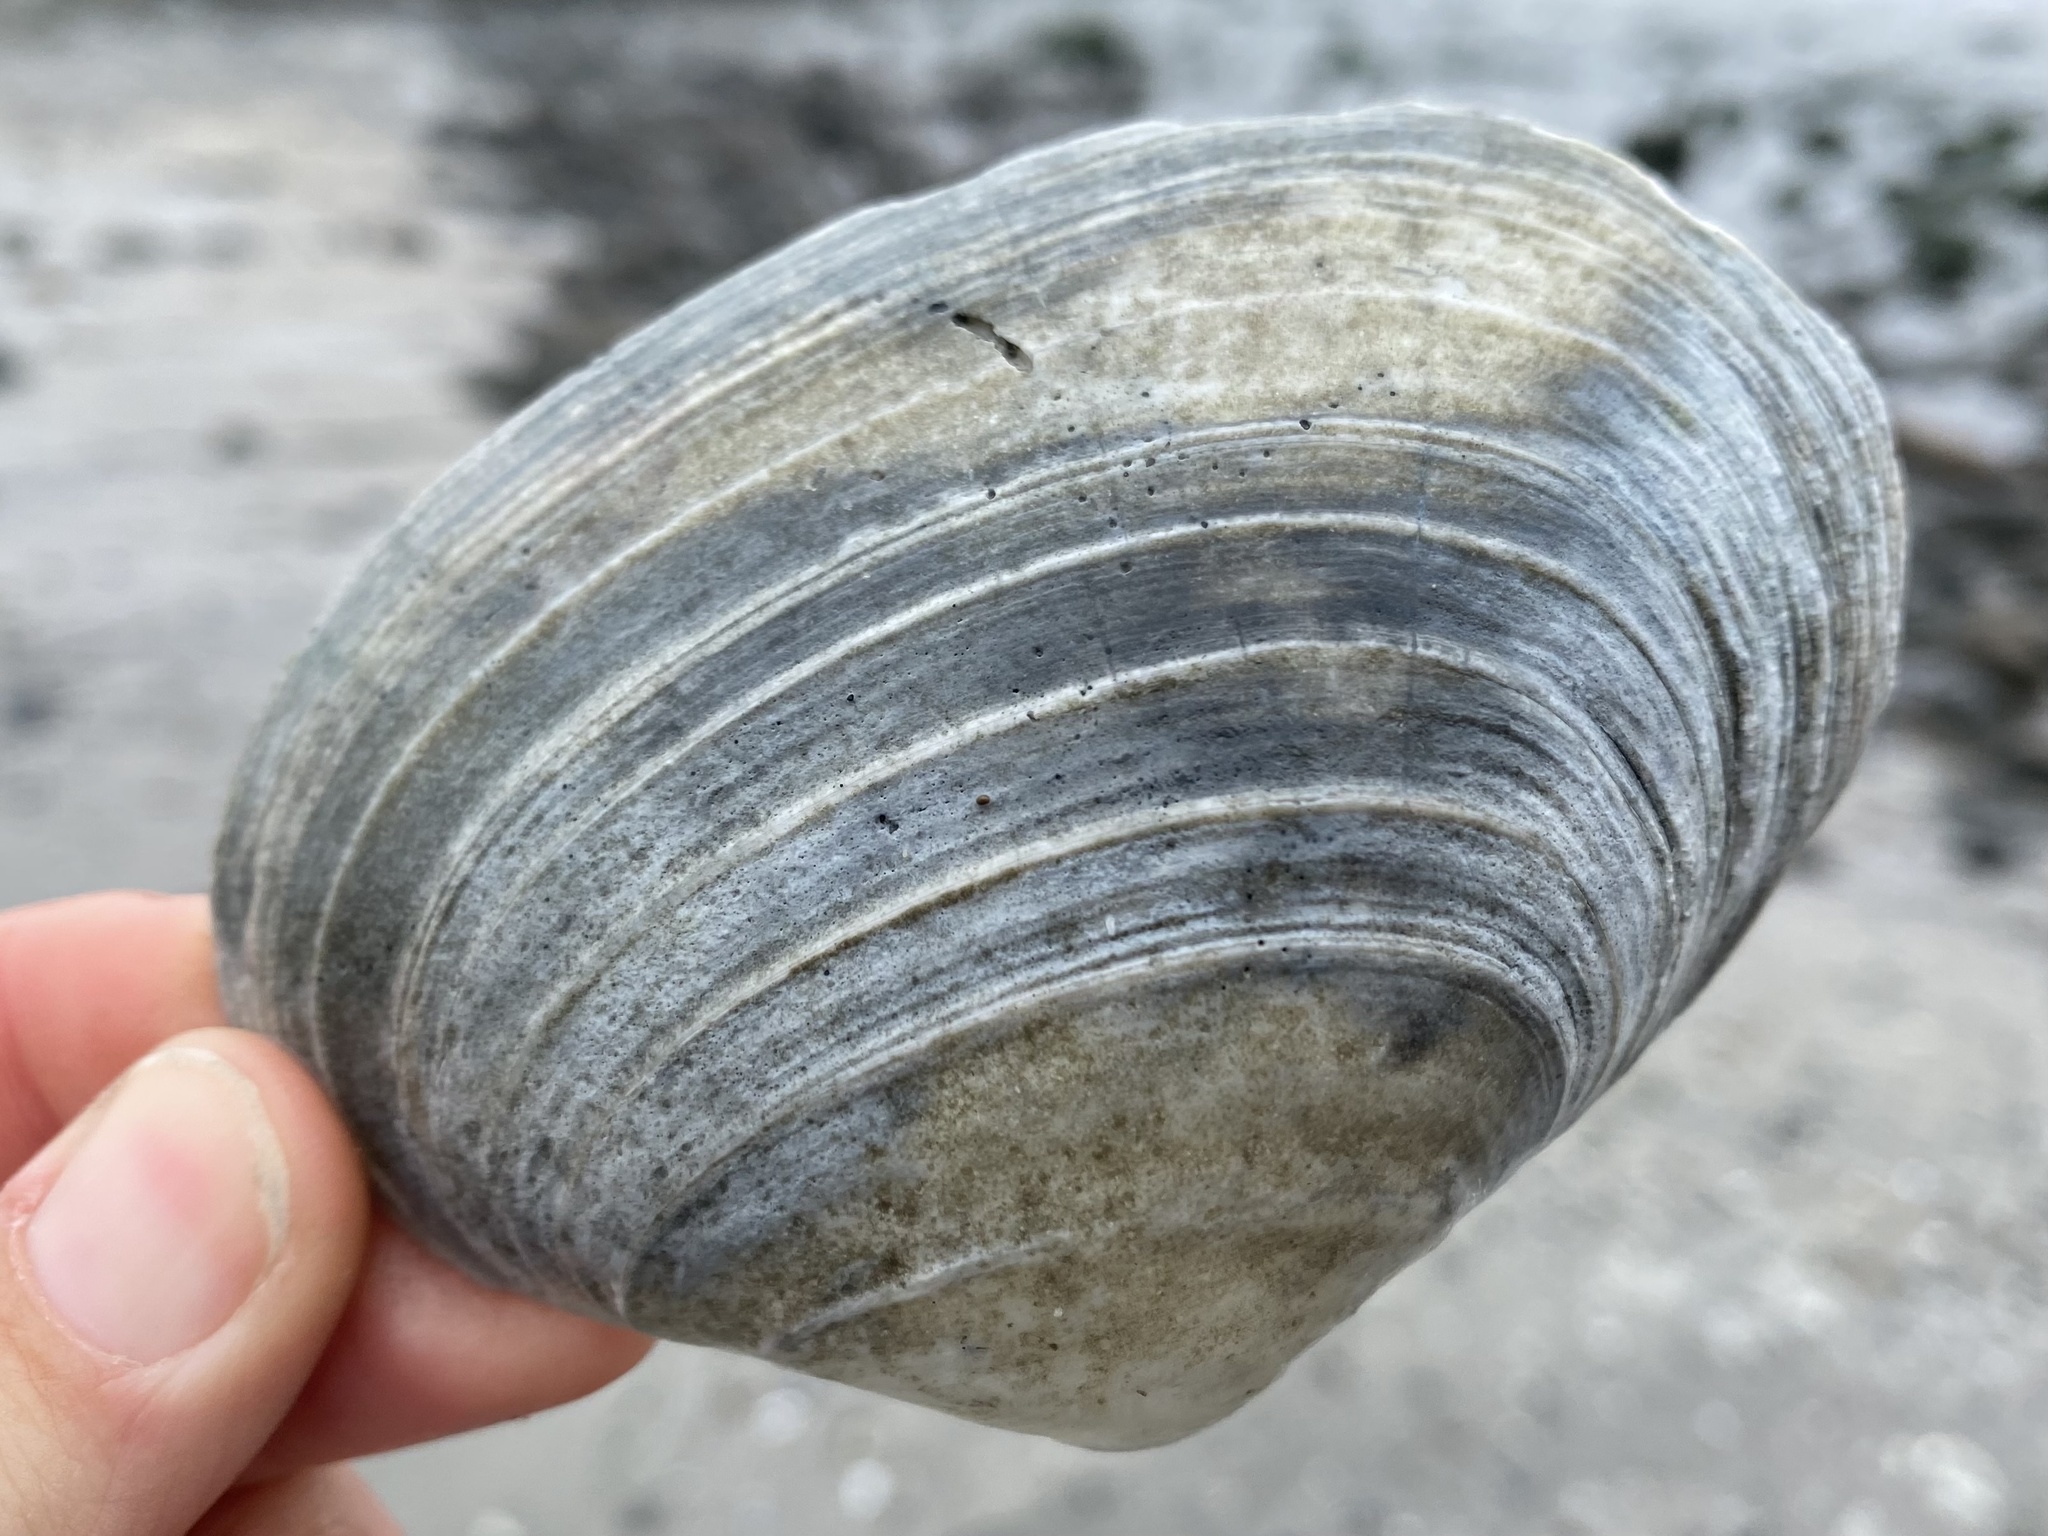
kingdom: Animalia
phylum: Mollusca
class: Bivalvia
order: Venerida
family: Veneridae
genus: Saxidomus
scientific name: Saxidomus nuttalli
